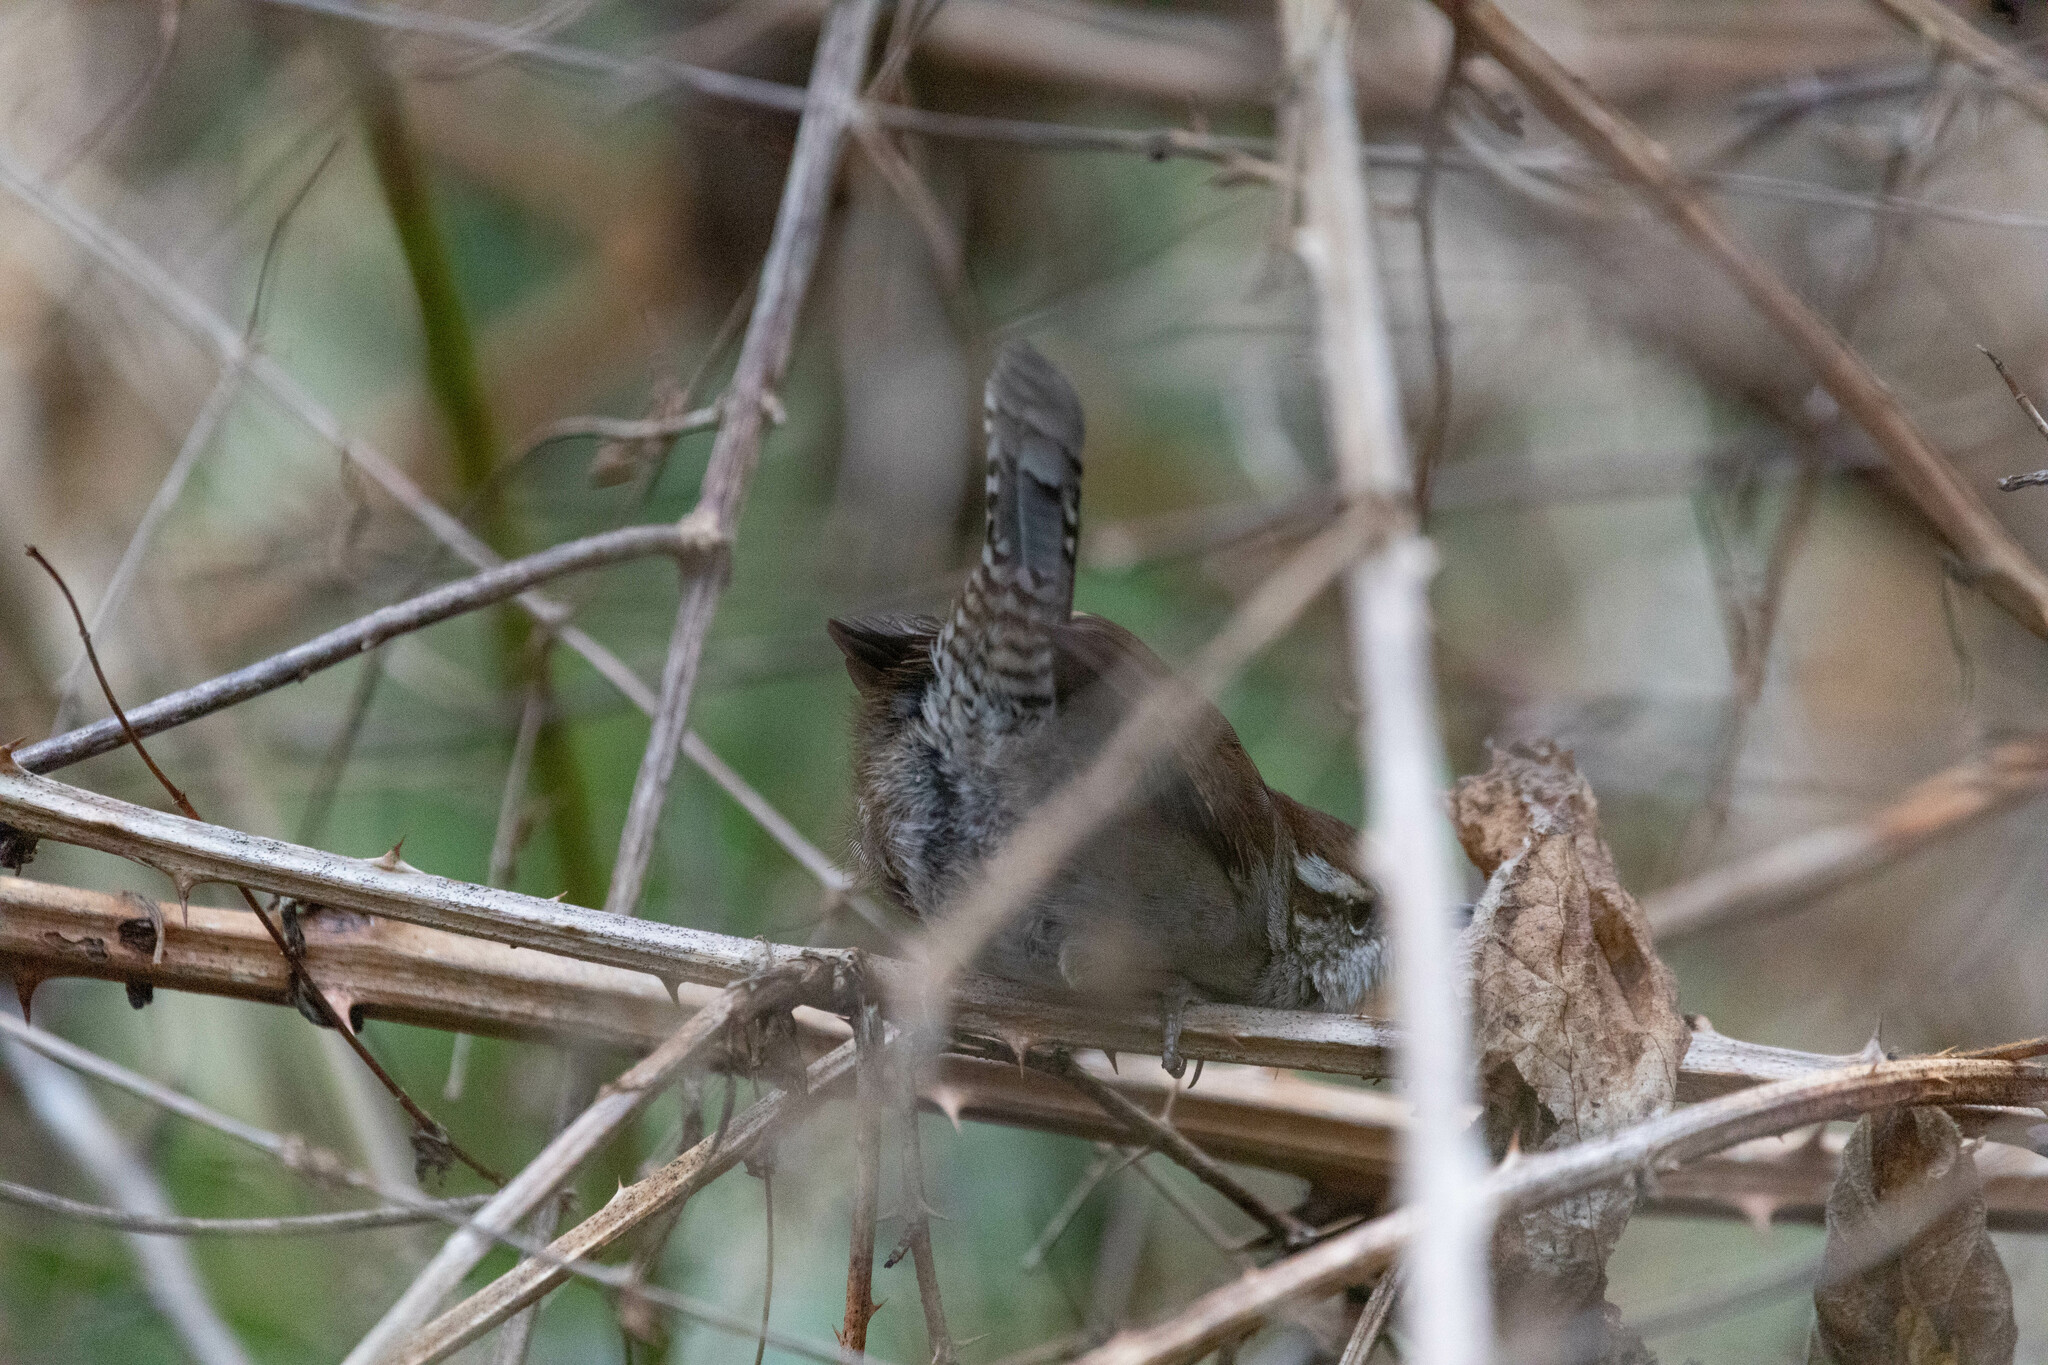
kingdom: Animalia
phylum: Chordata
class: Aves
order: Passeriformes
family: Troglodytidae
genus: Thryomanes
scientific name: Thryomanes bewickii
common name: Bewick's wren
